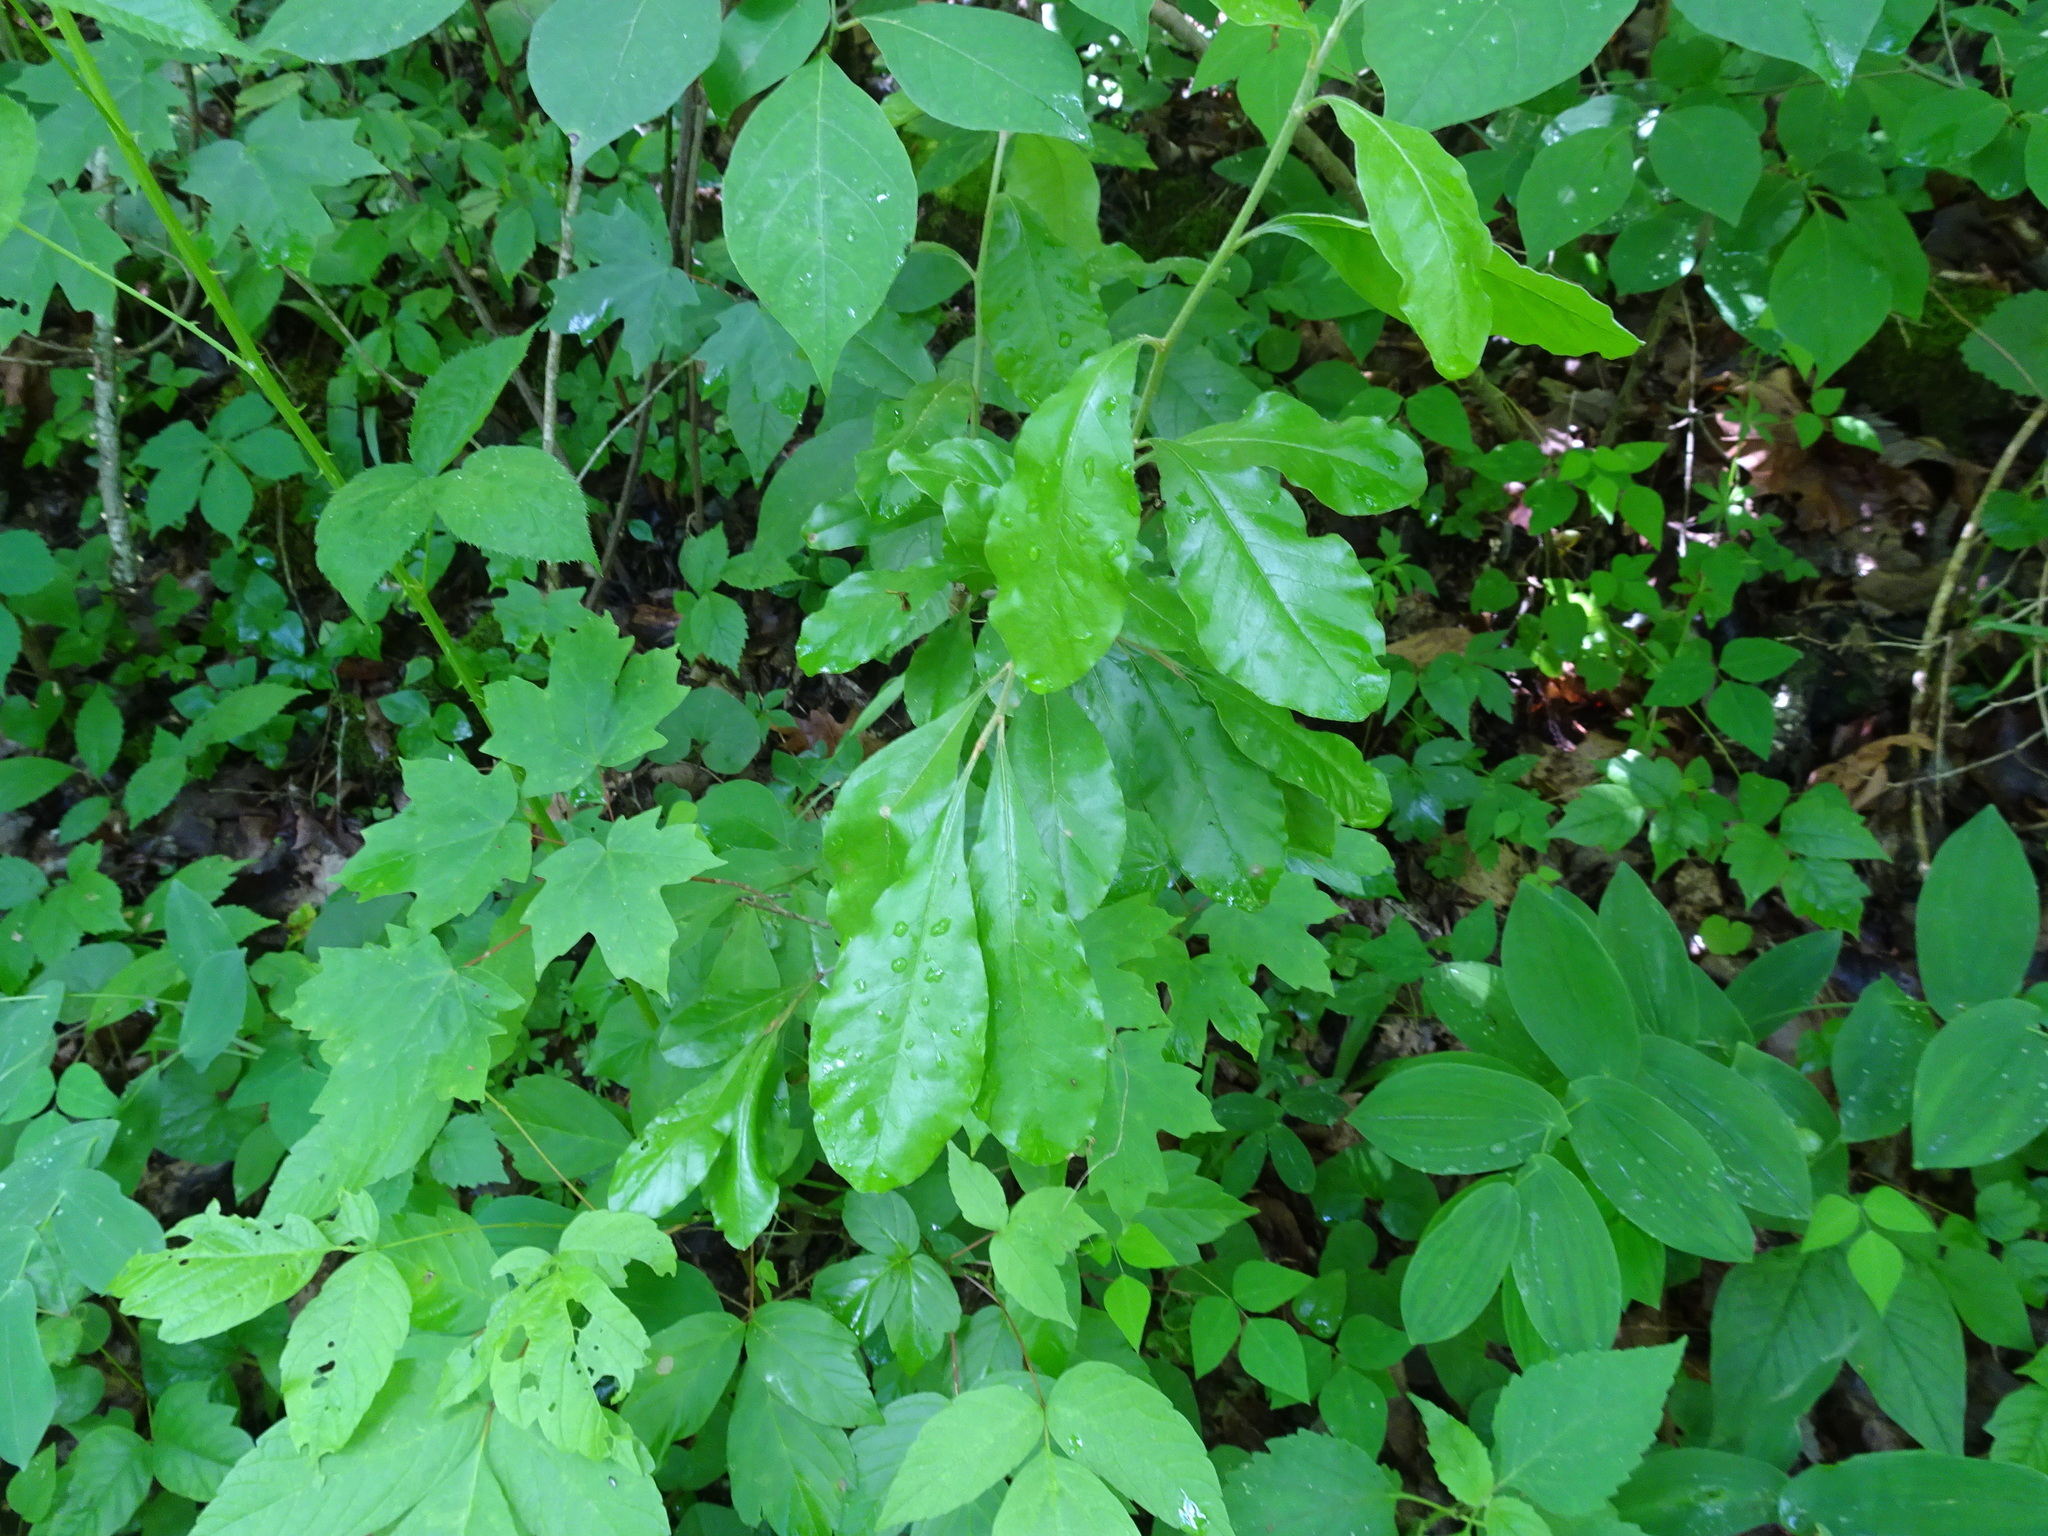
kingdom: Plantae
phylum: Tracheophyta
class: Magnoliopsida
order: Ericales
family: Sapotaceae
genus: Sideroxylon
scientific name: Sideroxylon lanuginosum
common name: Chittamwood
